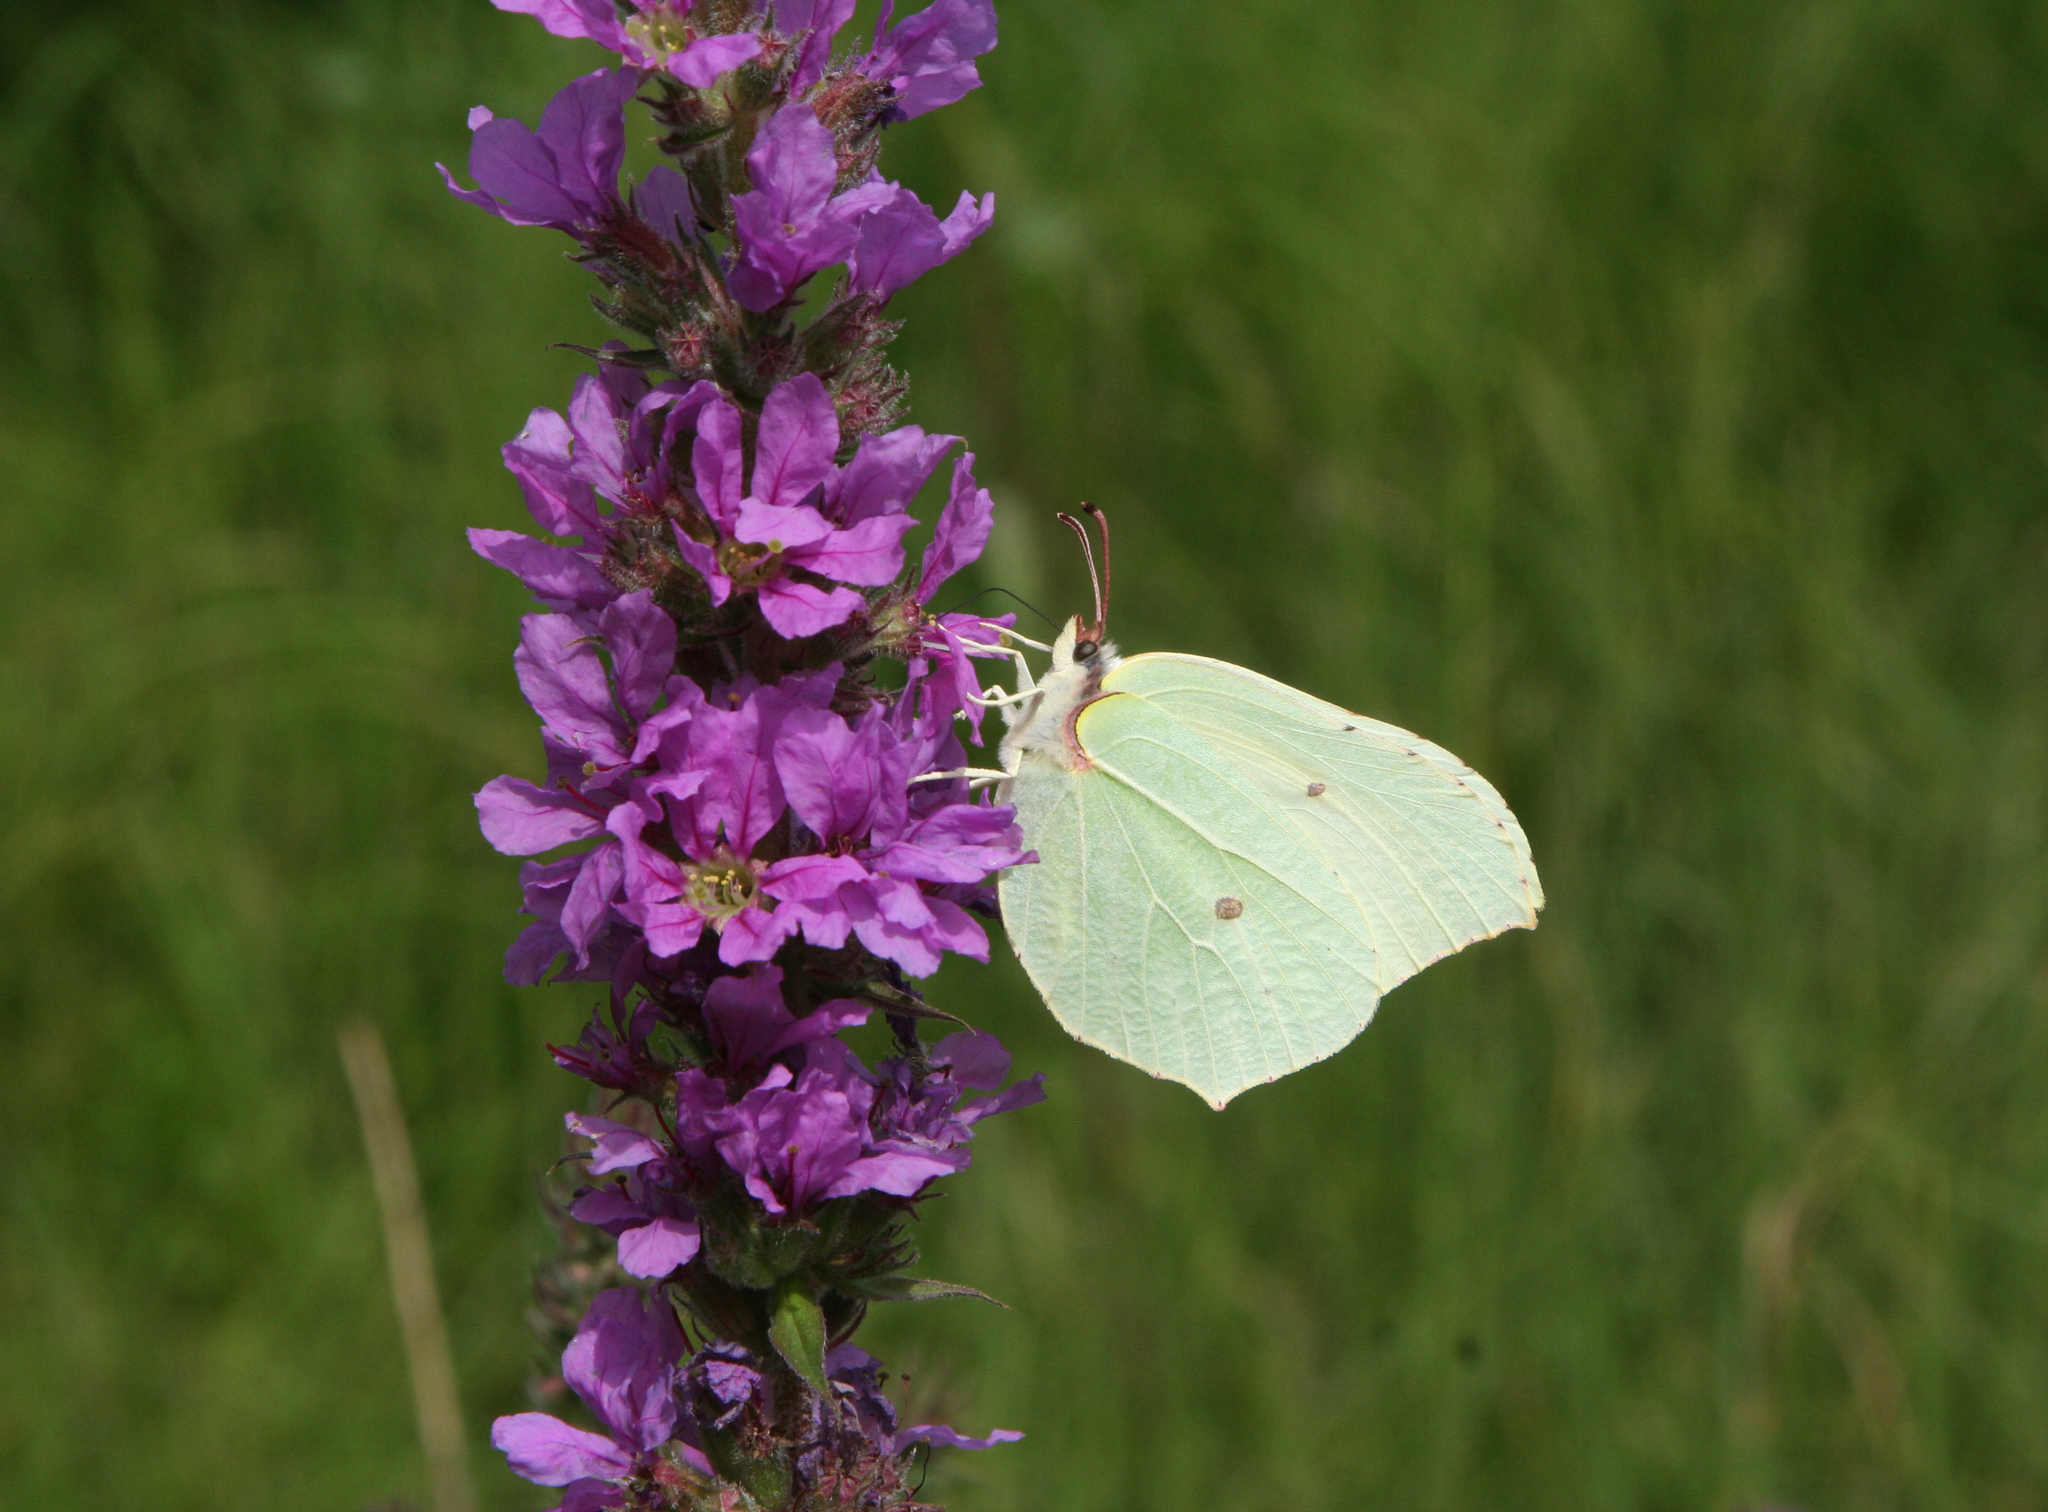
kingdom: Plantae
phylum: Tracheophyta
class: Magnoliopsida
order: Myrtales
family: Lythraceae
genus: Lythrum
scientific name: Lythrum salicaria
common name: Purple loosestrife
